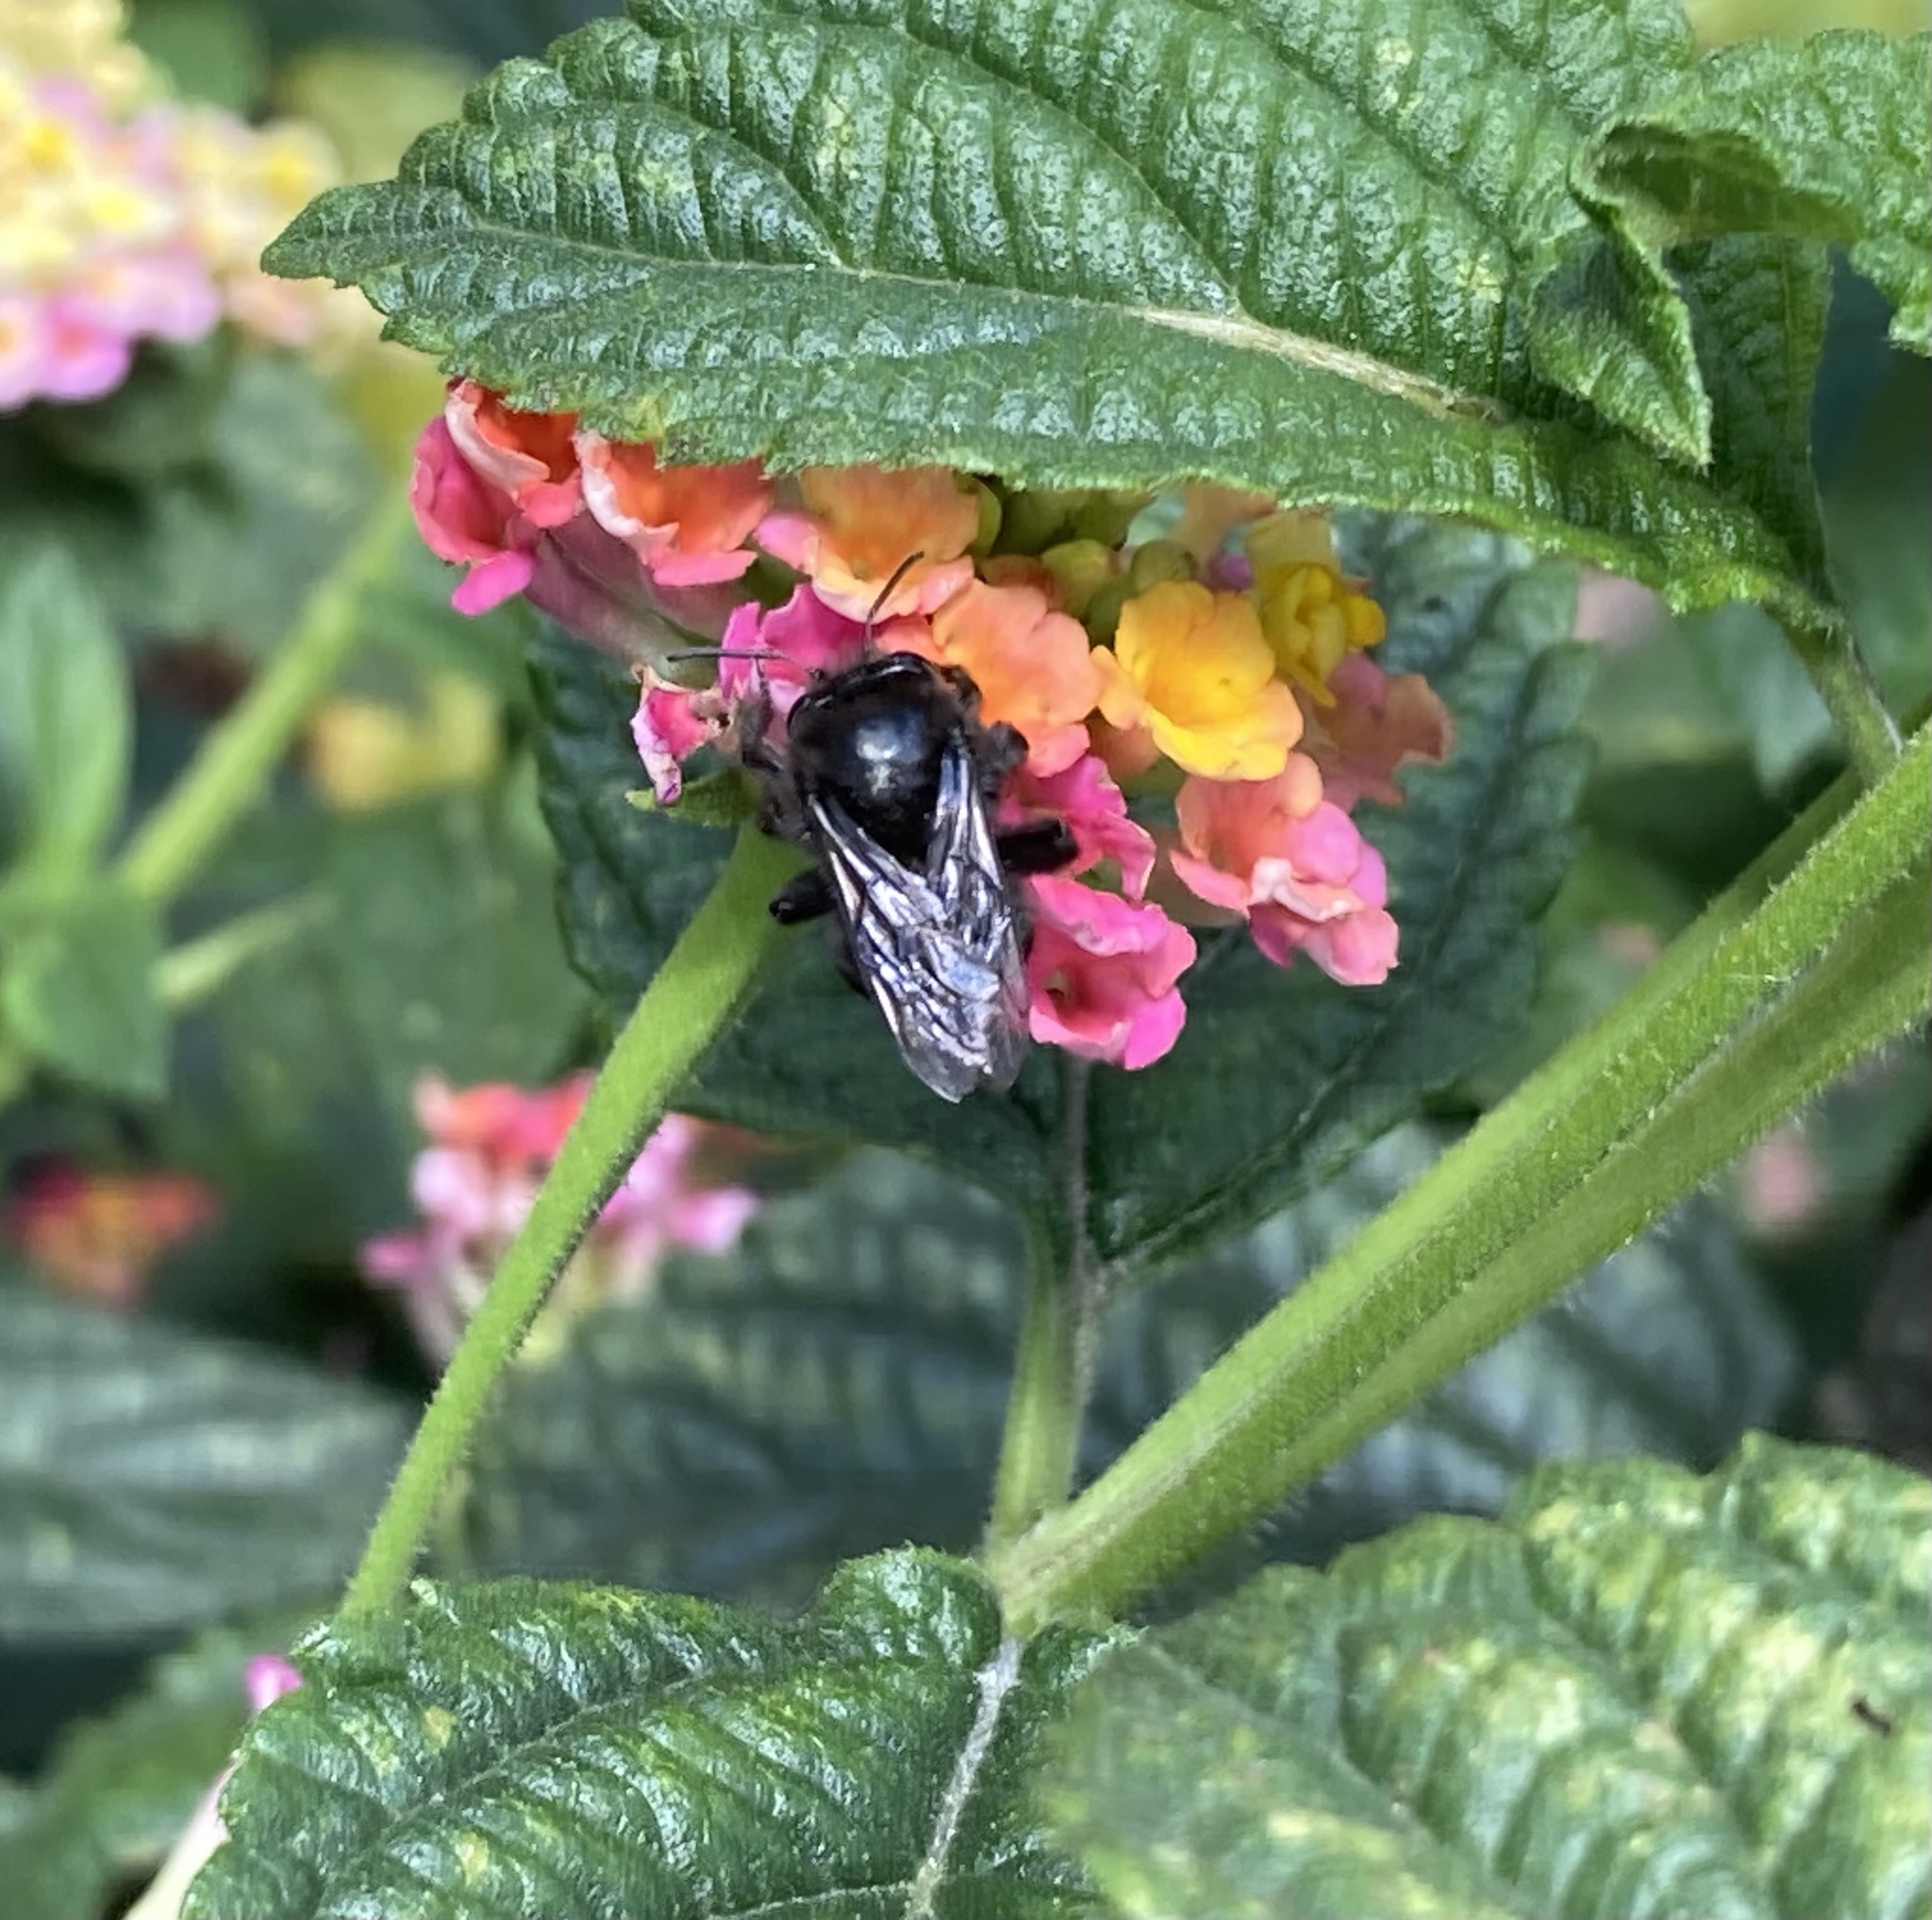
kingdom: Animalia
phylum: Arthropoda
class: Insecta
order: Hymenoptera
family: Apidae
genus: Thygater
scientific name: Thygater aethiops
